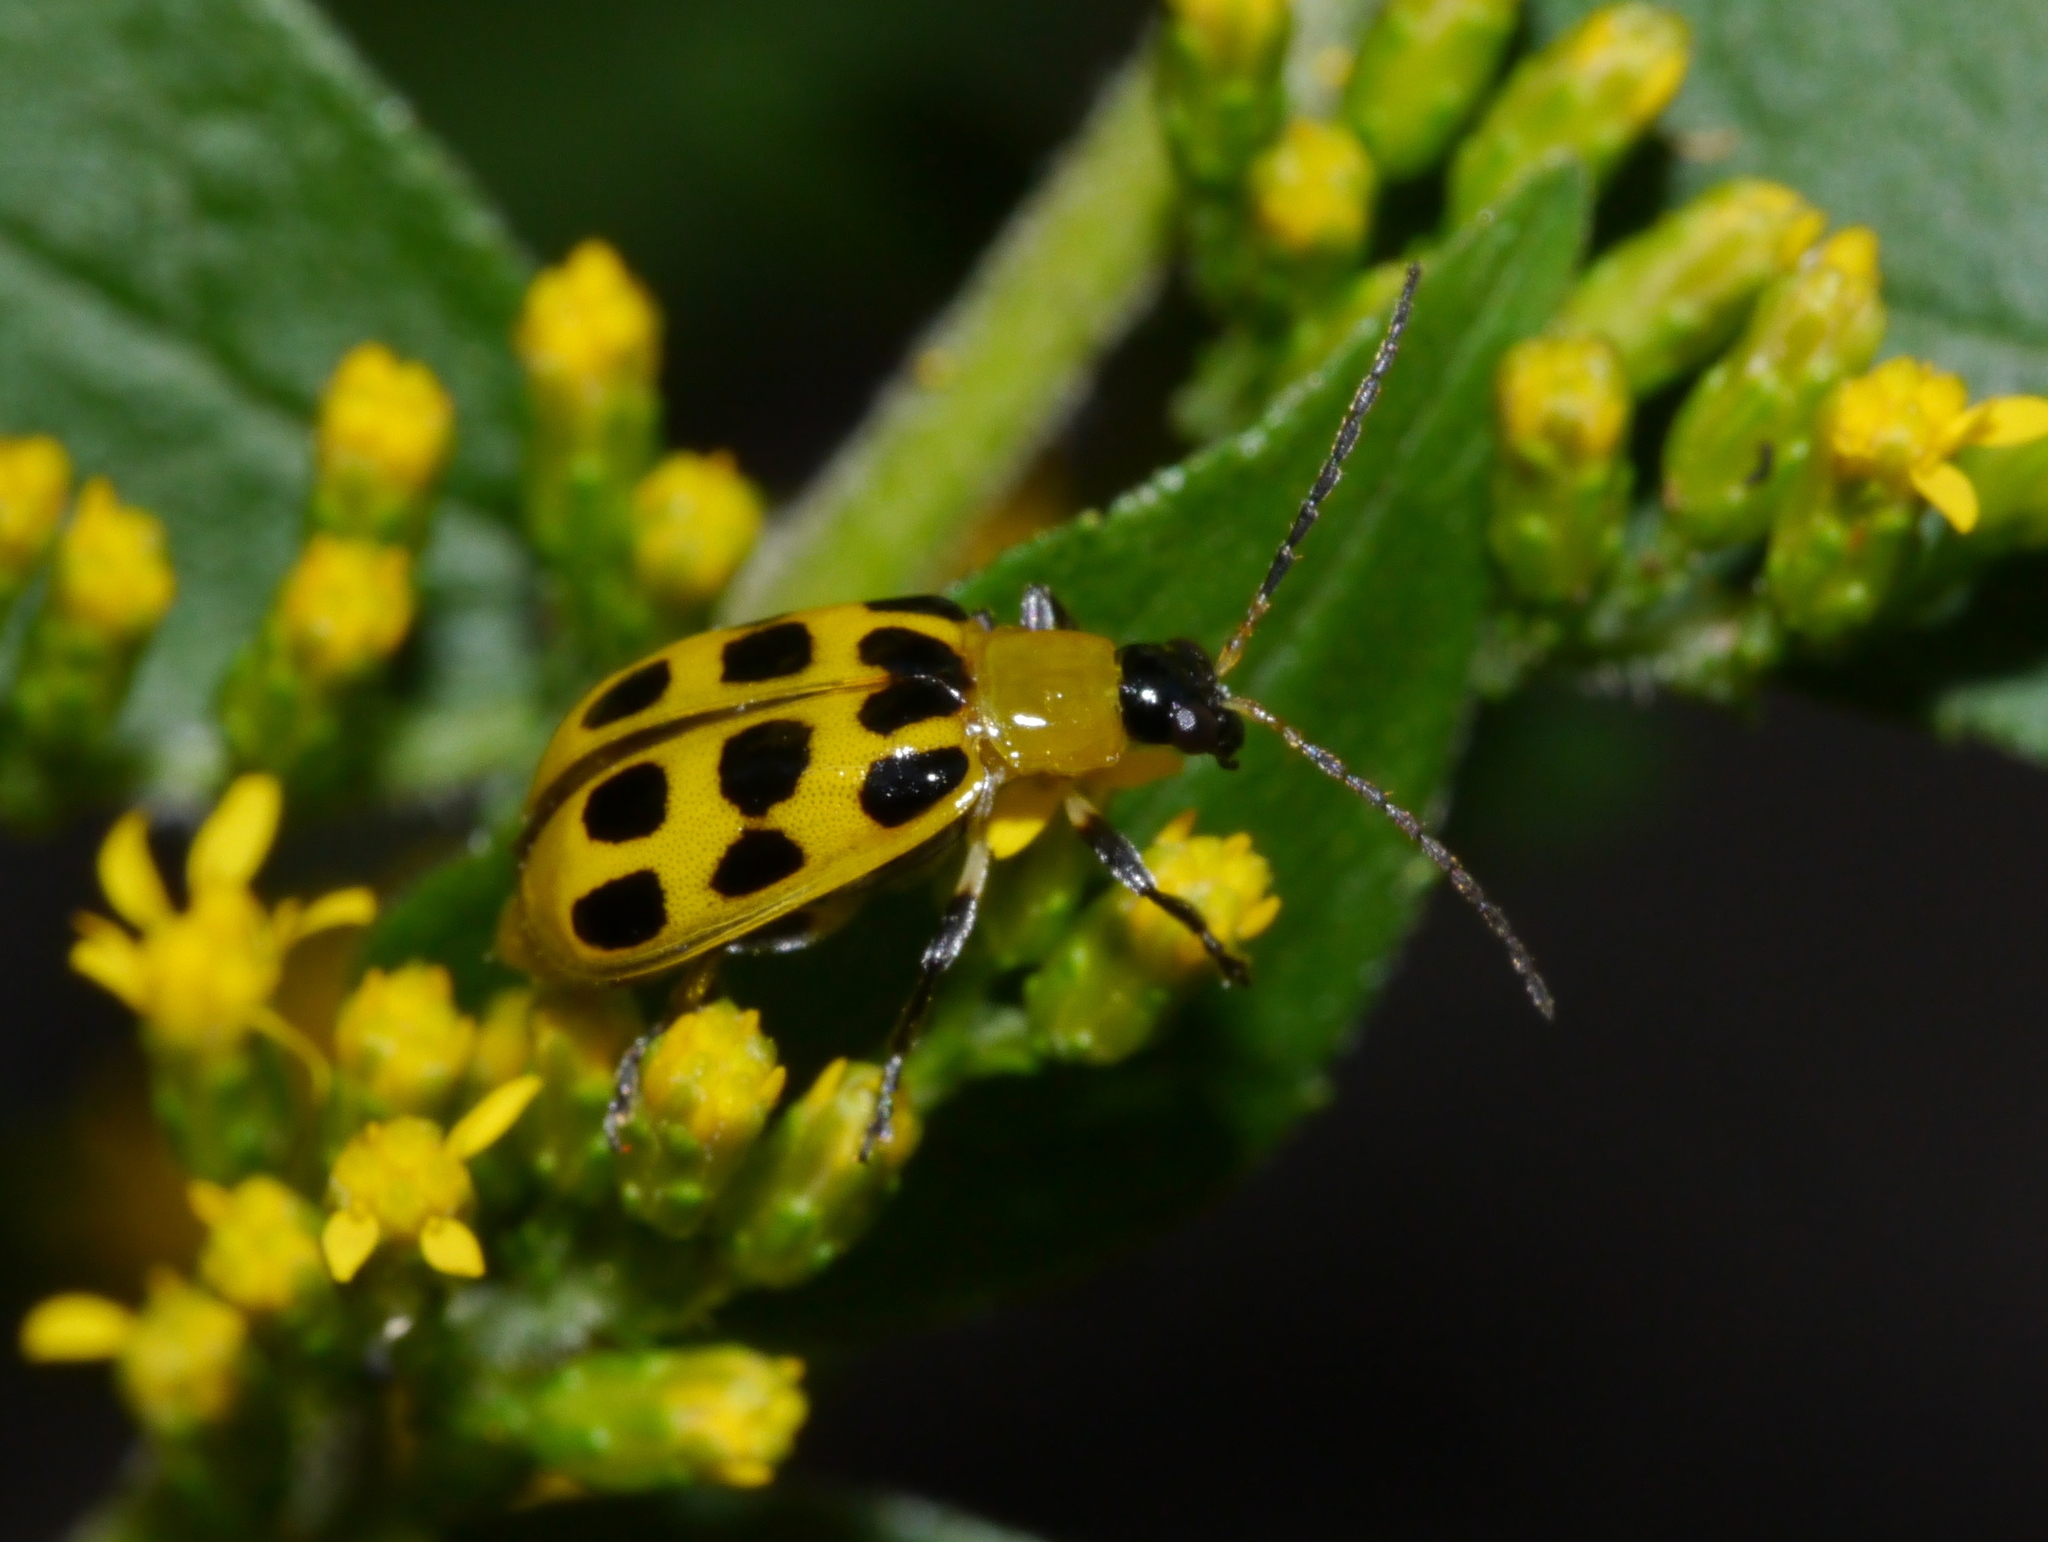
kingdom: Animalia
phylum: Arthropoda
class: Insecta
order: Coleoptera
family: Chrysomelidae
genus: Diabrotica
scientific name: Diabrotica undecimpunctata
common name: Spotted cucumber beetle
